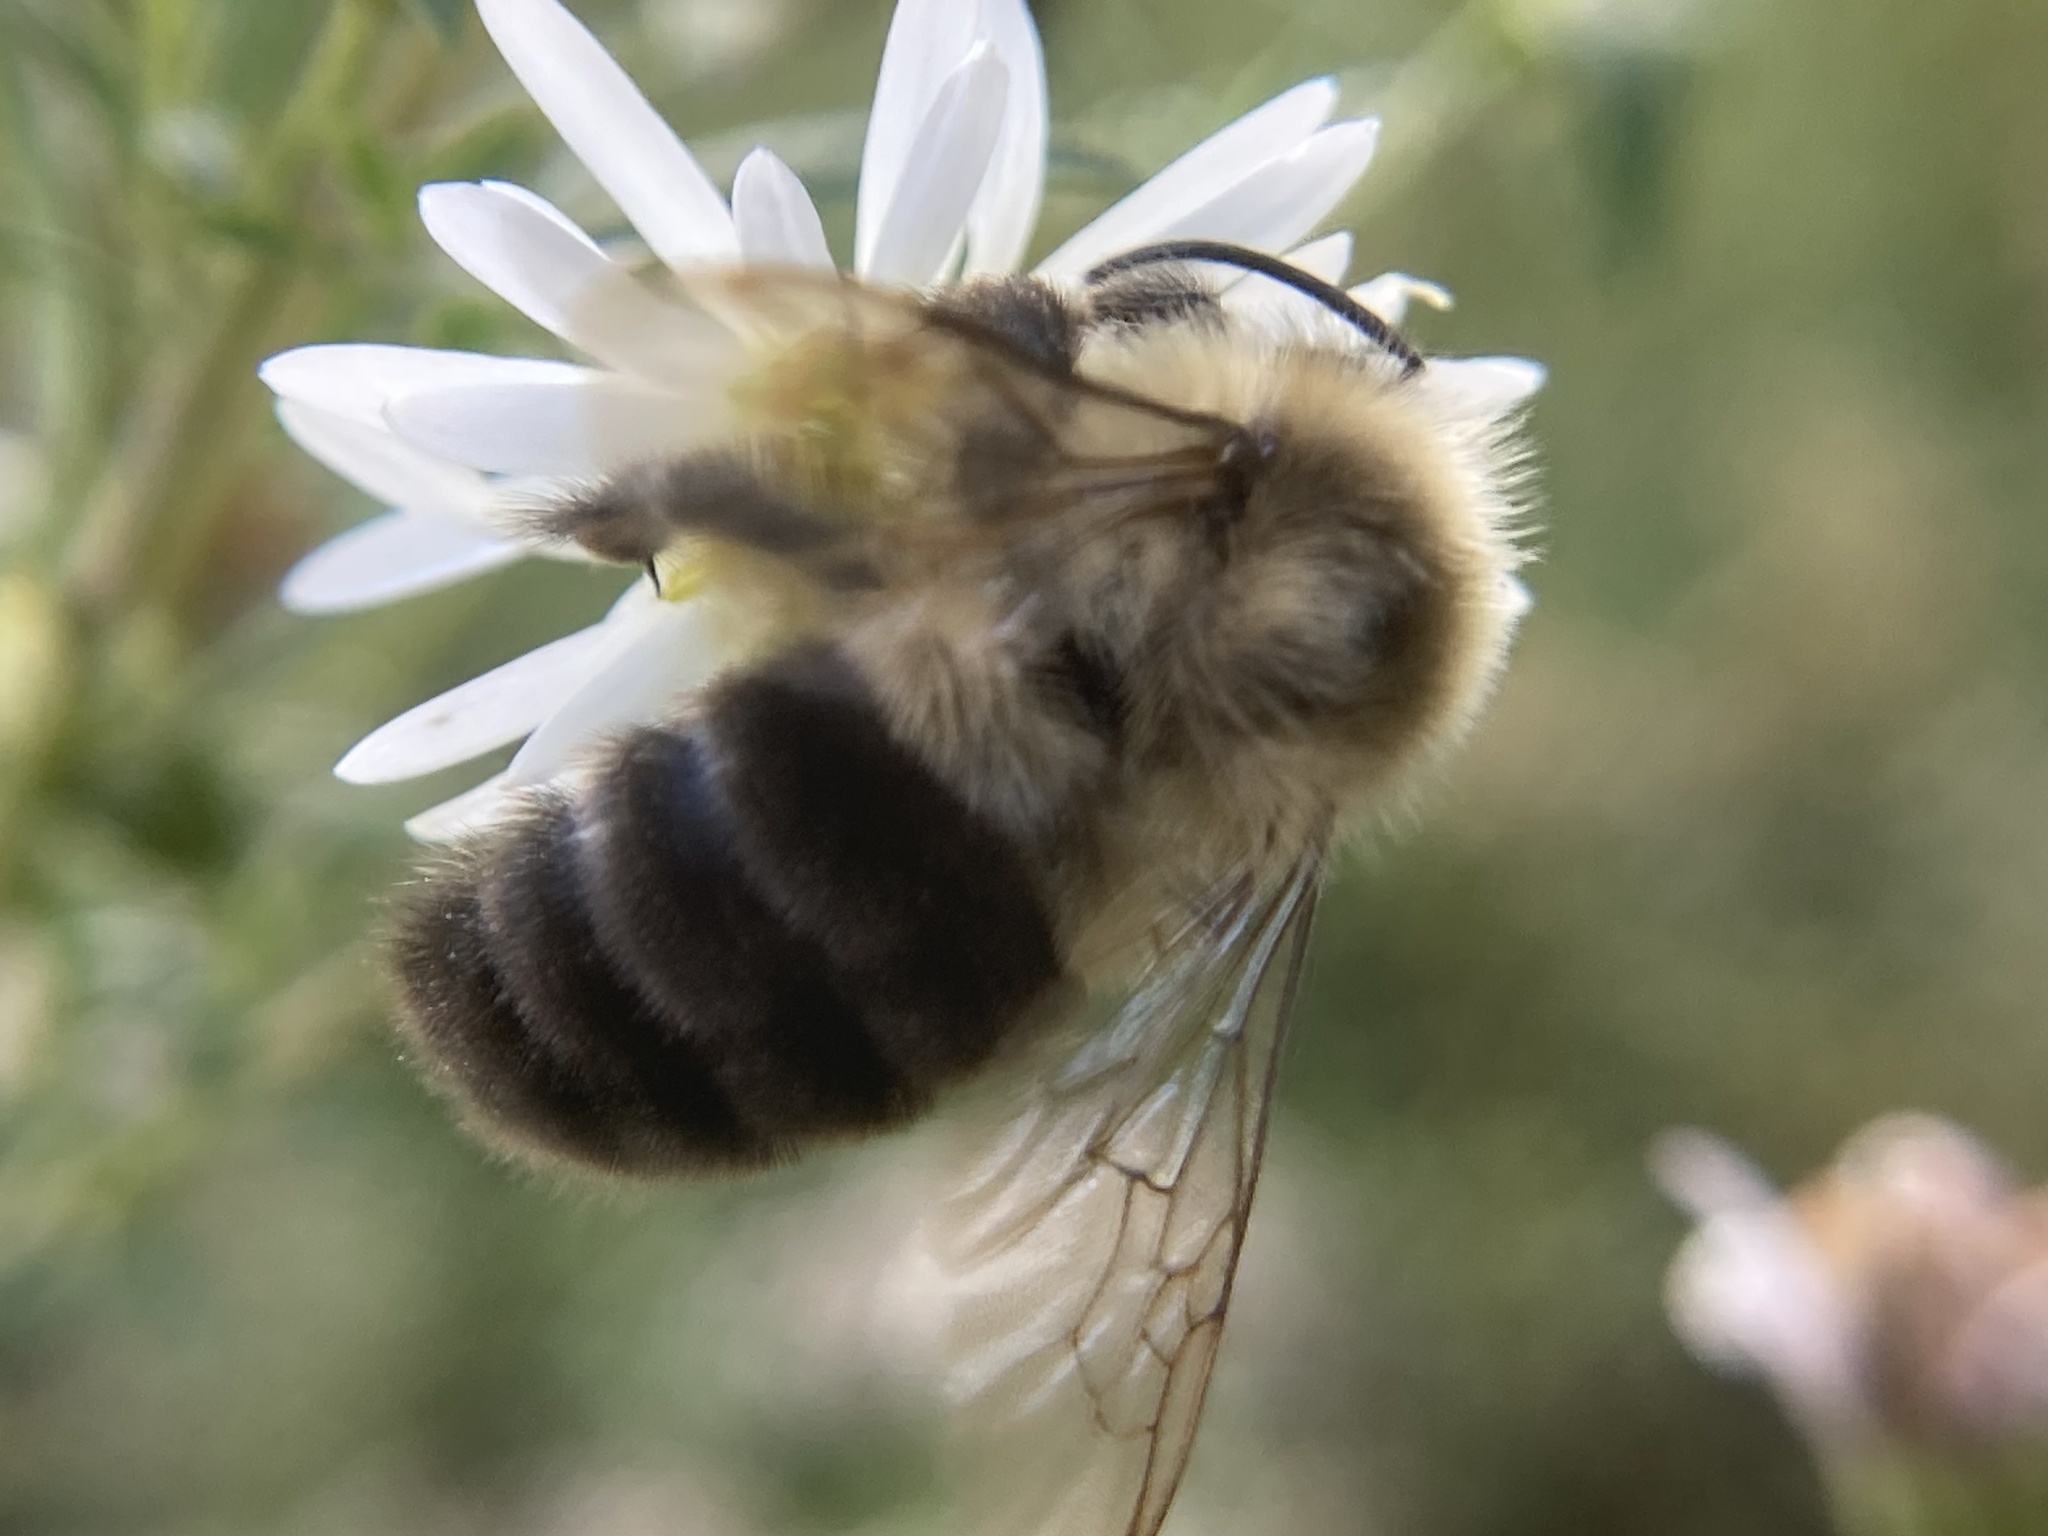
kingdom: Animalia
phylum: Arthropoda
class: Insecta
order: Hymenoptera
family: Apidae
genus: Bombus
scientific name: Bombus impatiens
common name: Common eastern bumble bee
